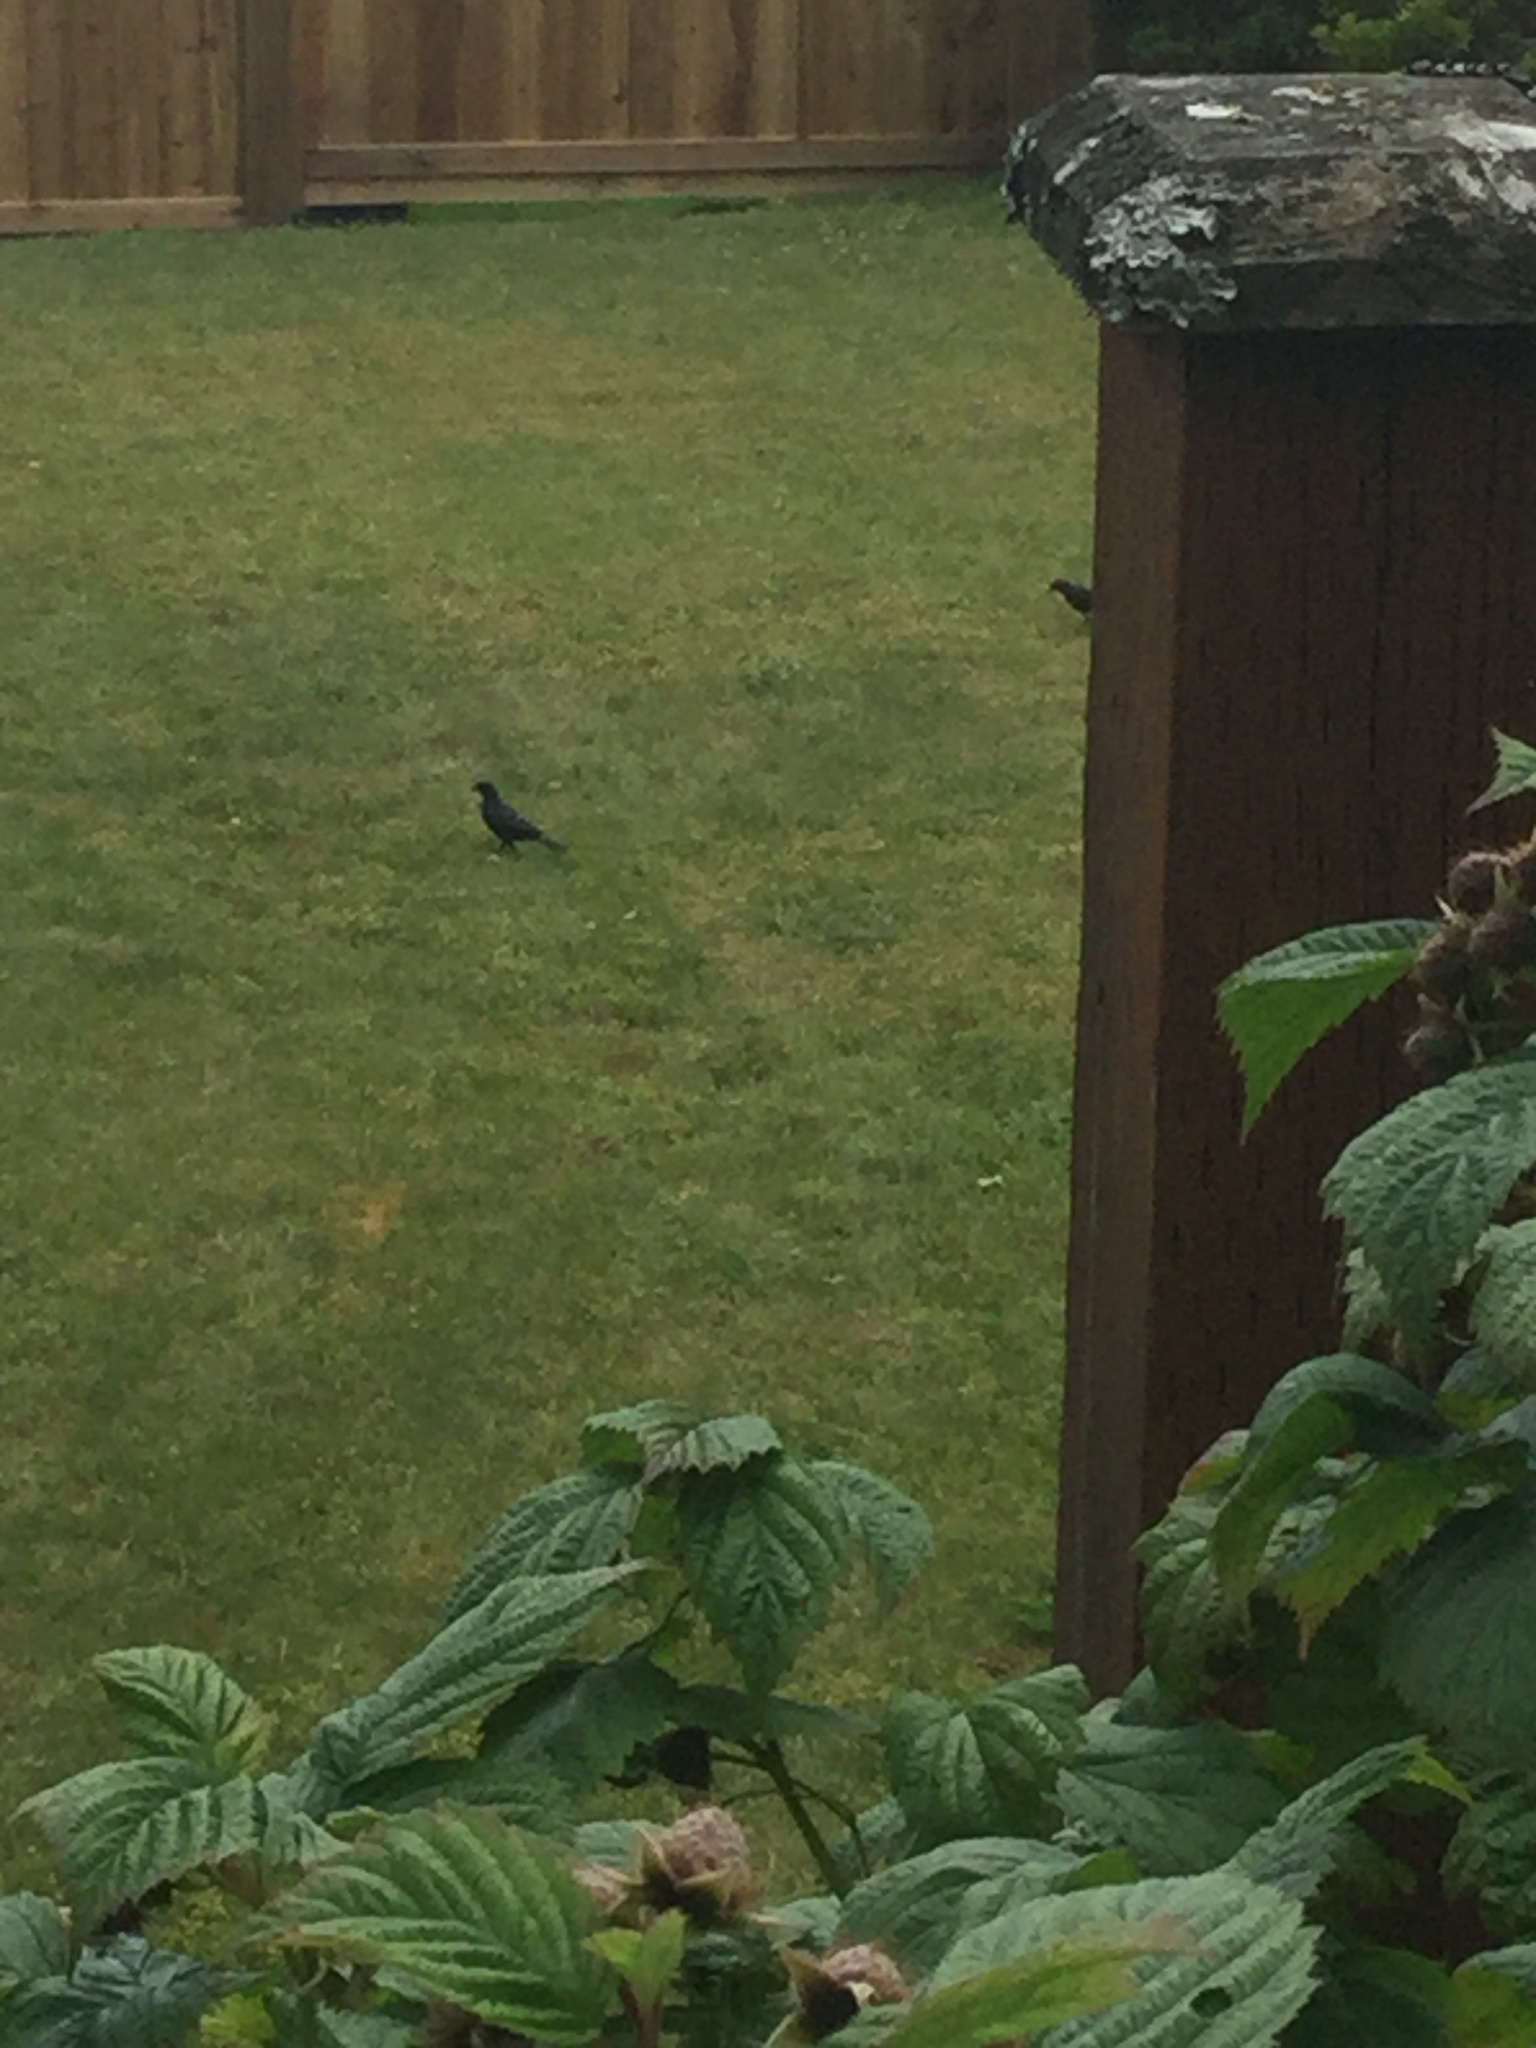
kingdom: Animalia
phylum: Chordata
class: Aves
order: Passeriformes
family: Icteridae
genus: Euphagus
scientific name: Euphagus cyanocephalus
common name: Brewer's blackbird
